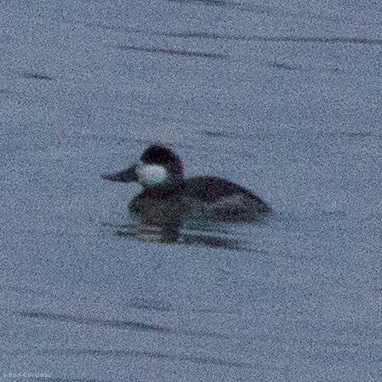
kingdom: Animalia
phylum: Chordata
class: Aves
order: Anseriformes
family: Anatidae
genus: Oxyura
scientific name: Oxyura jamaicensis
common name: Ruddy duck
